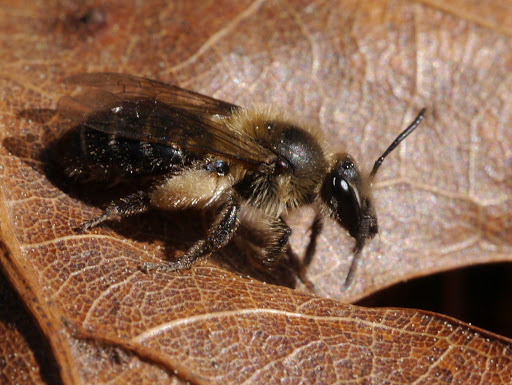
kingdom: Animalia
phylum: Arthropoda
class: Insecta
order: Hymenoptera
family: Andrenidae
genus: Andrena
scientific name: Andrena bradleyi
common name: Bradley's mining bee
